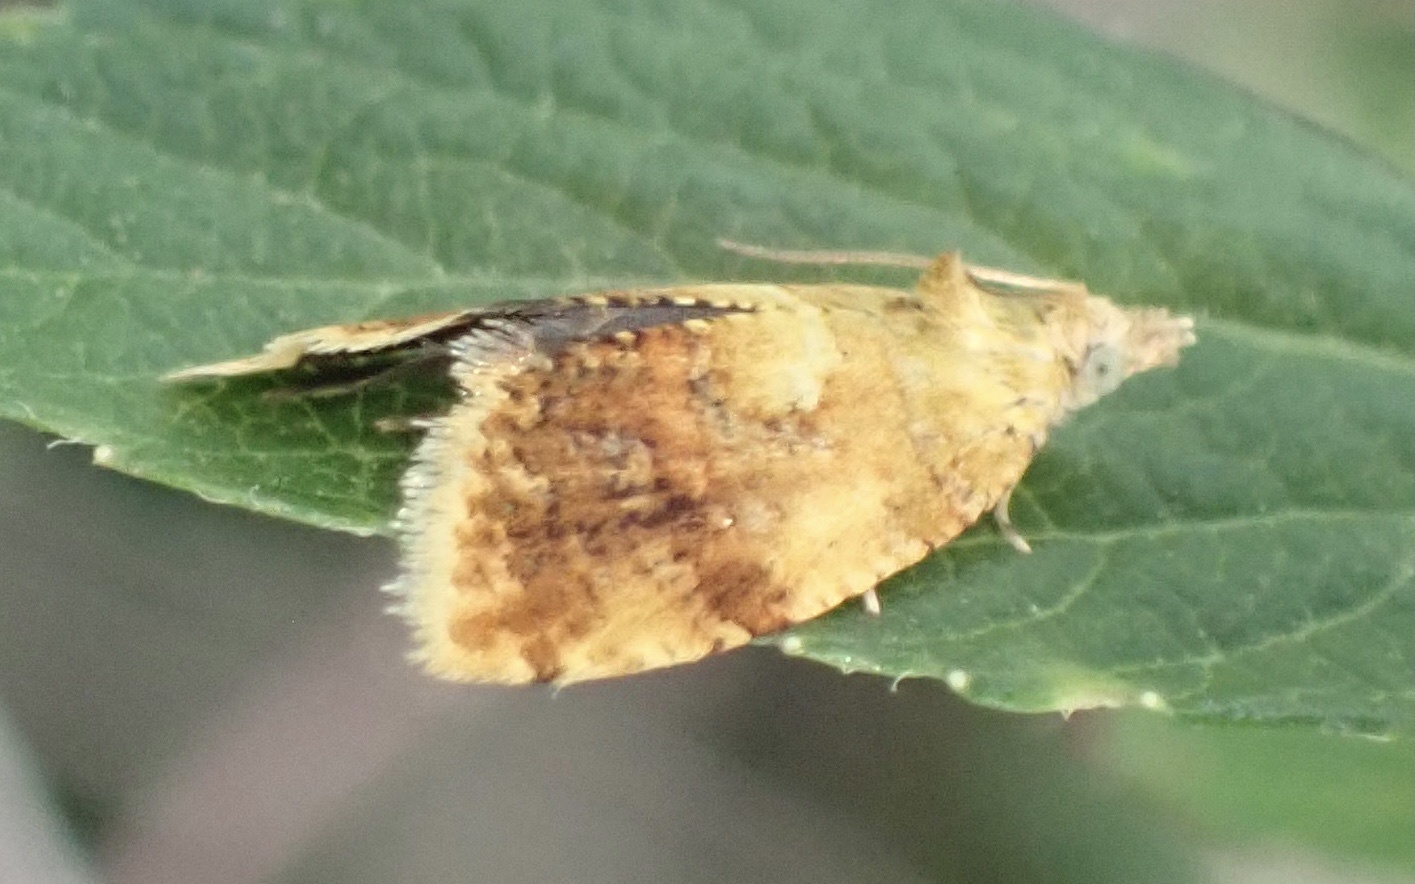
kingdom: Animalia
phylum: Arthropoda
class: Insecta
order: Lepidoptera
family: Tortricidae
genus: Pseudargyrotoza
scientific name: Pseudargyrotoza conwagana
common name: Yellow-spot twist
